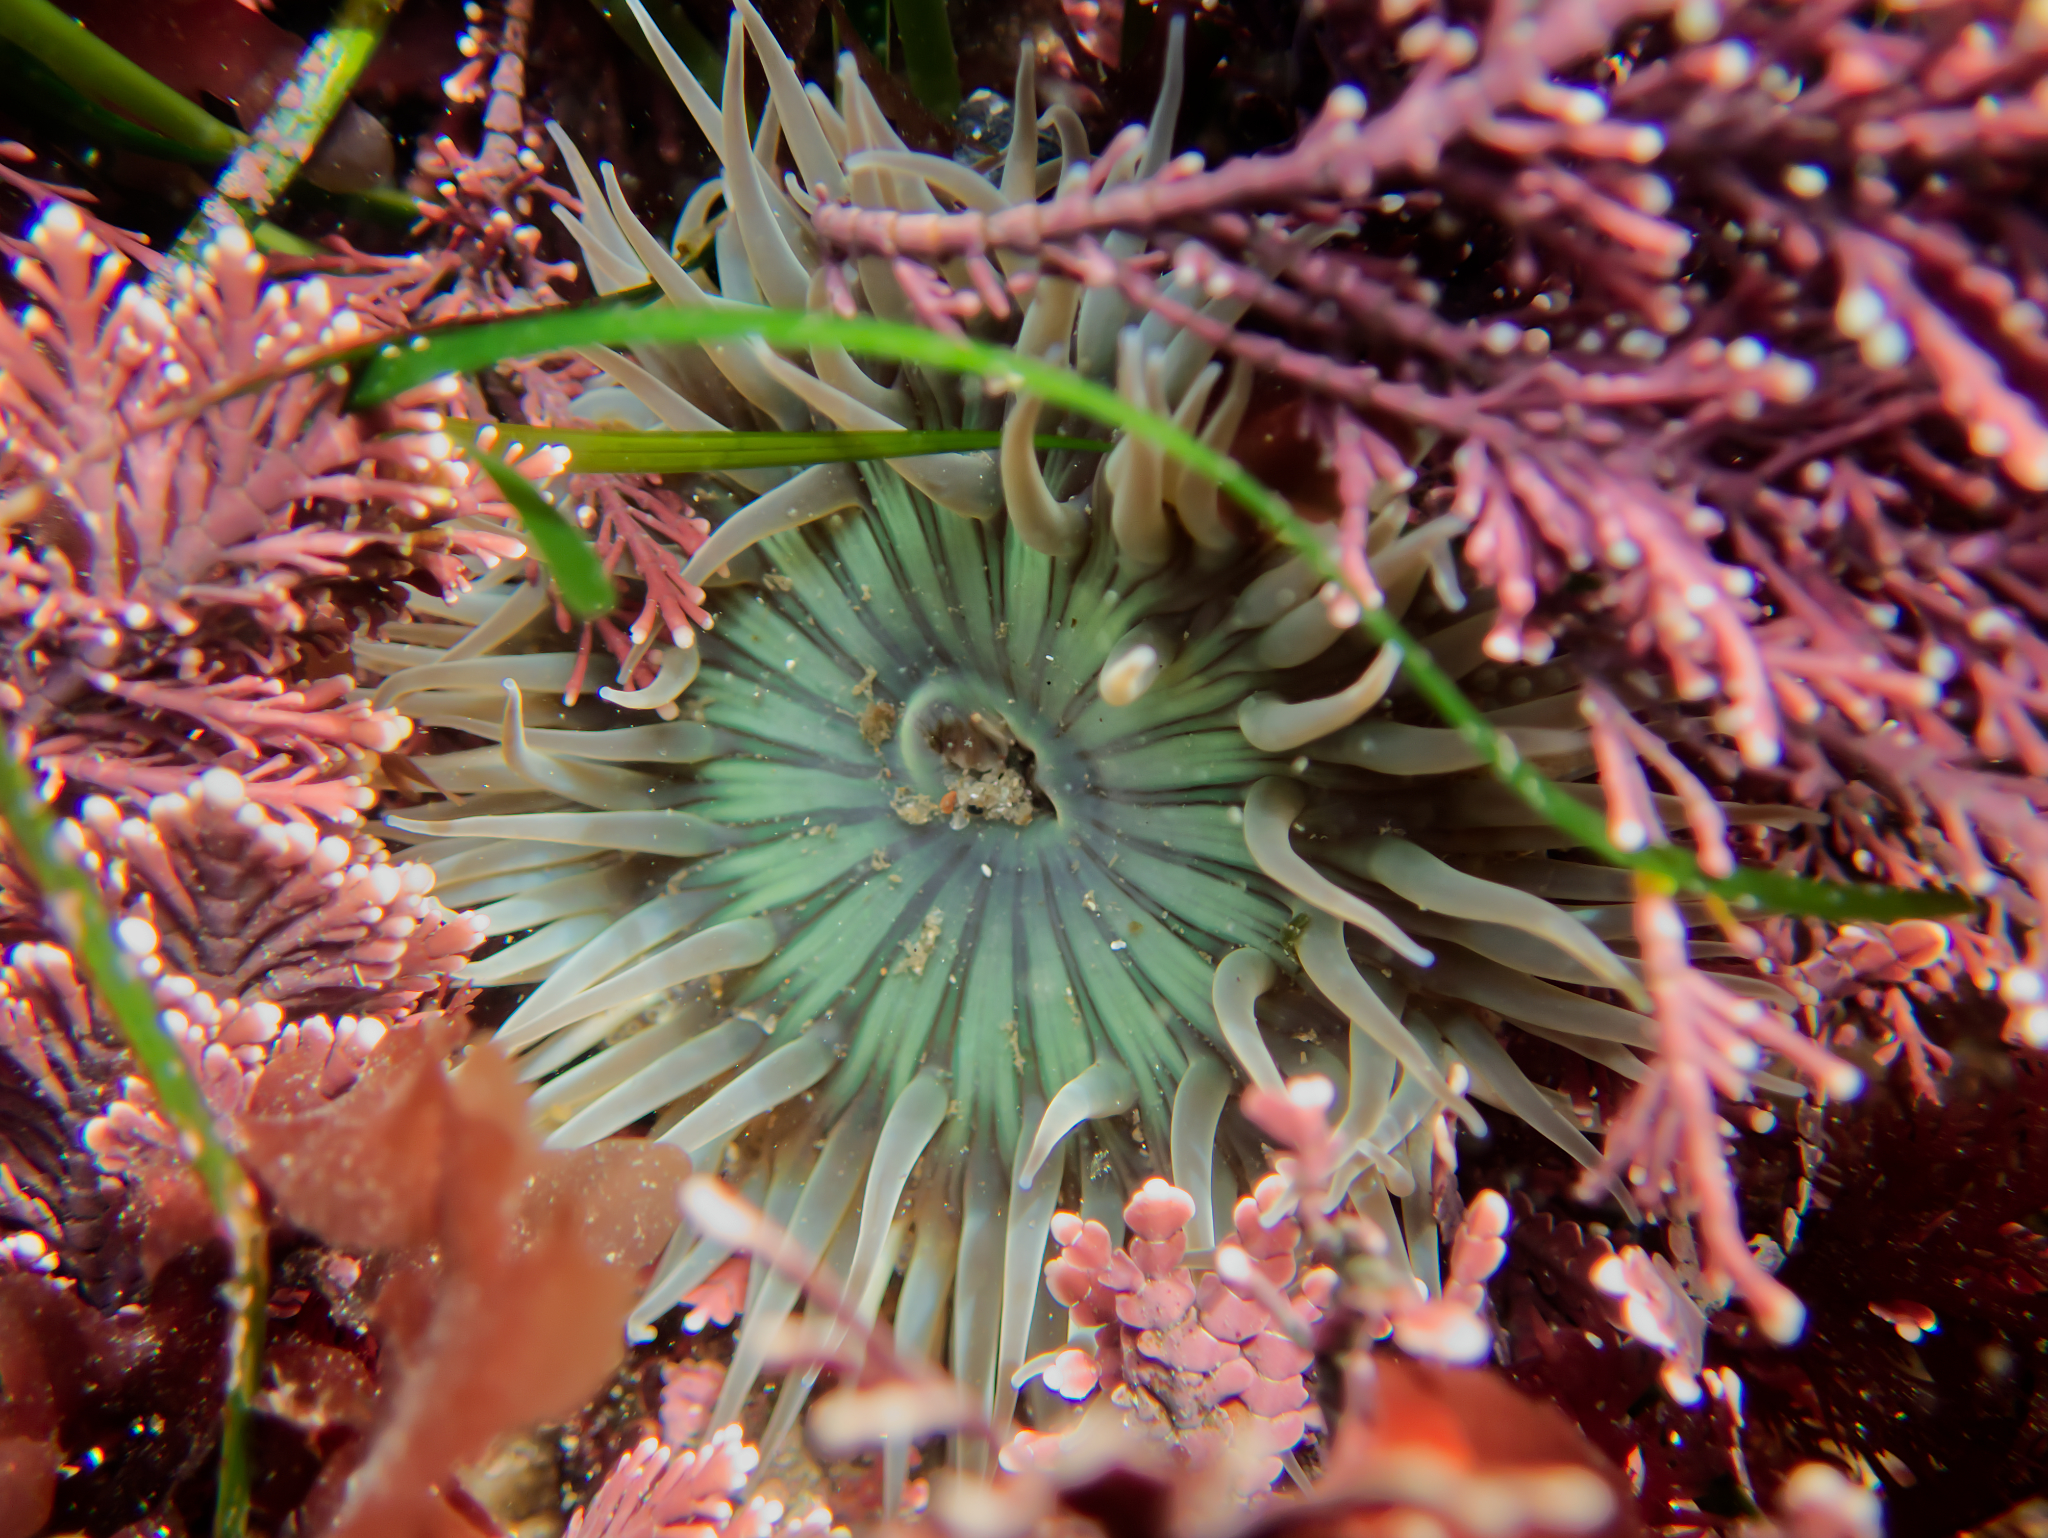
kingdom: Animalia
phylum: Cnidaria
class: Anthozoa
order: Actiniaria
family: Actiniidae
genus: Anthopleura
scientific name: Anthopleura sola
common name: Sun anemone
